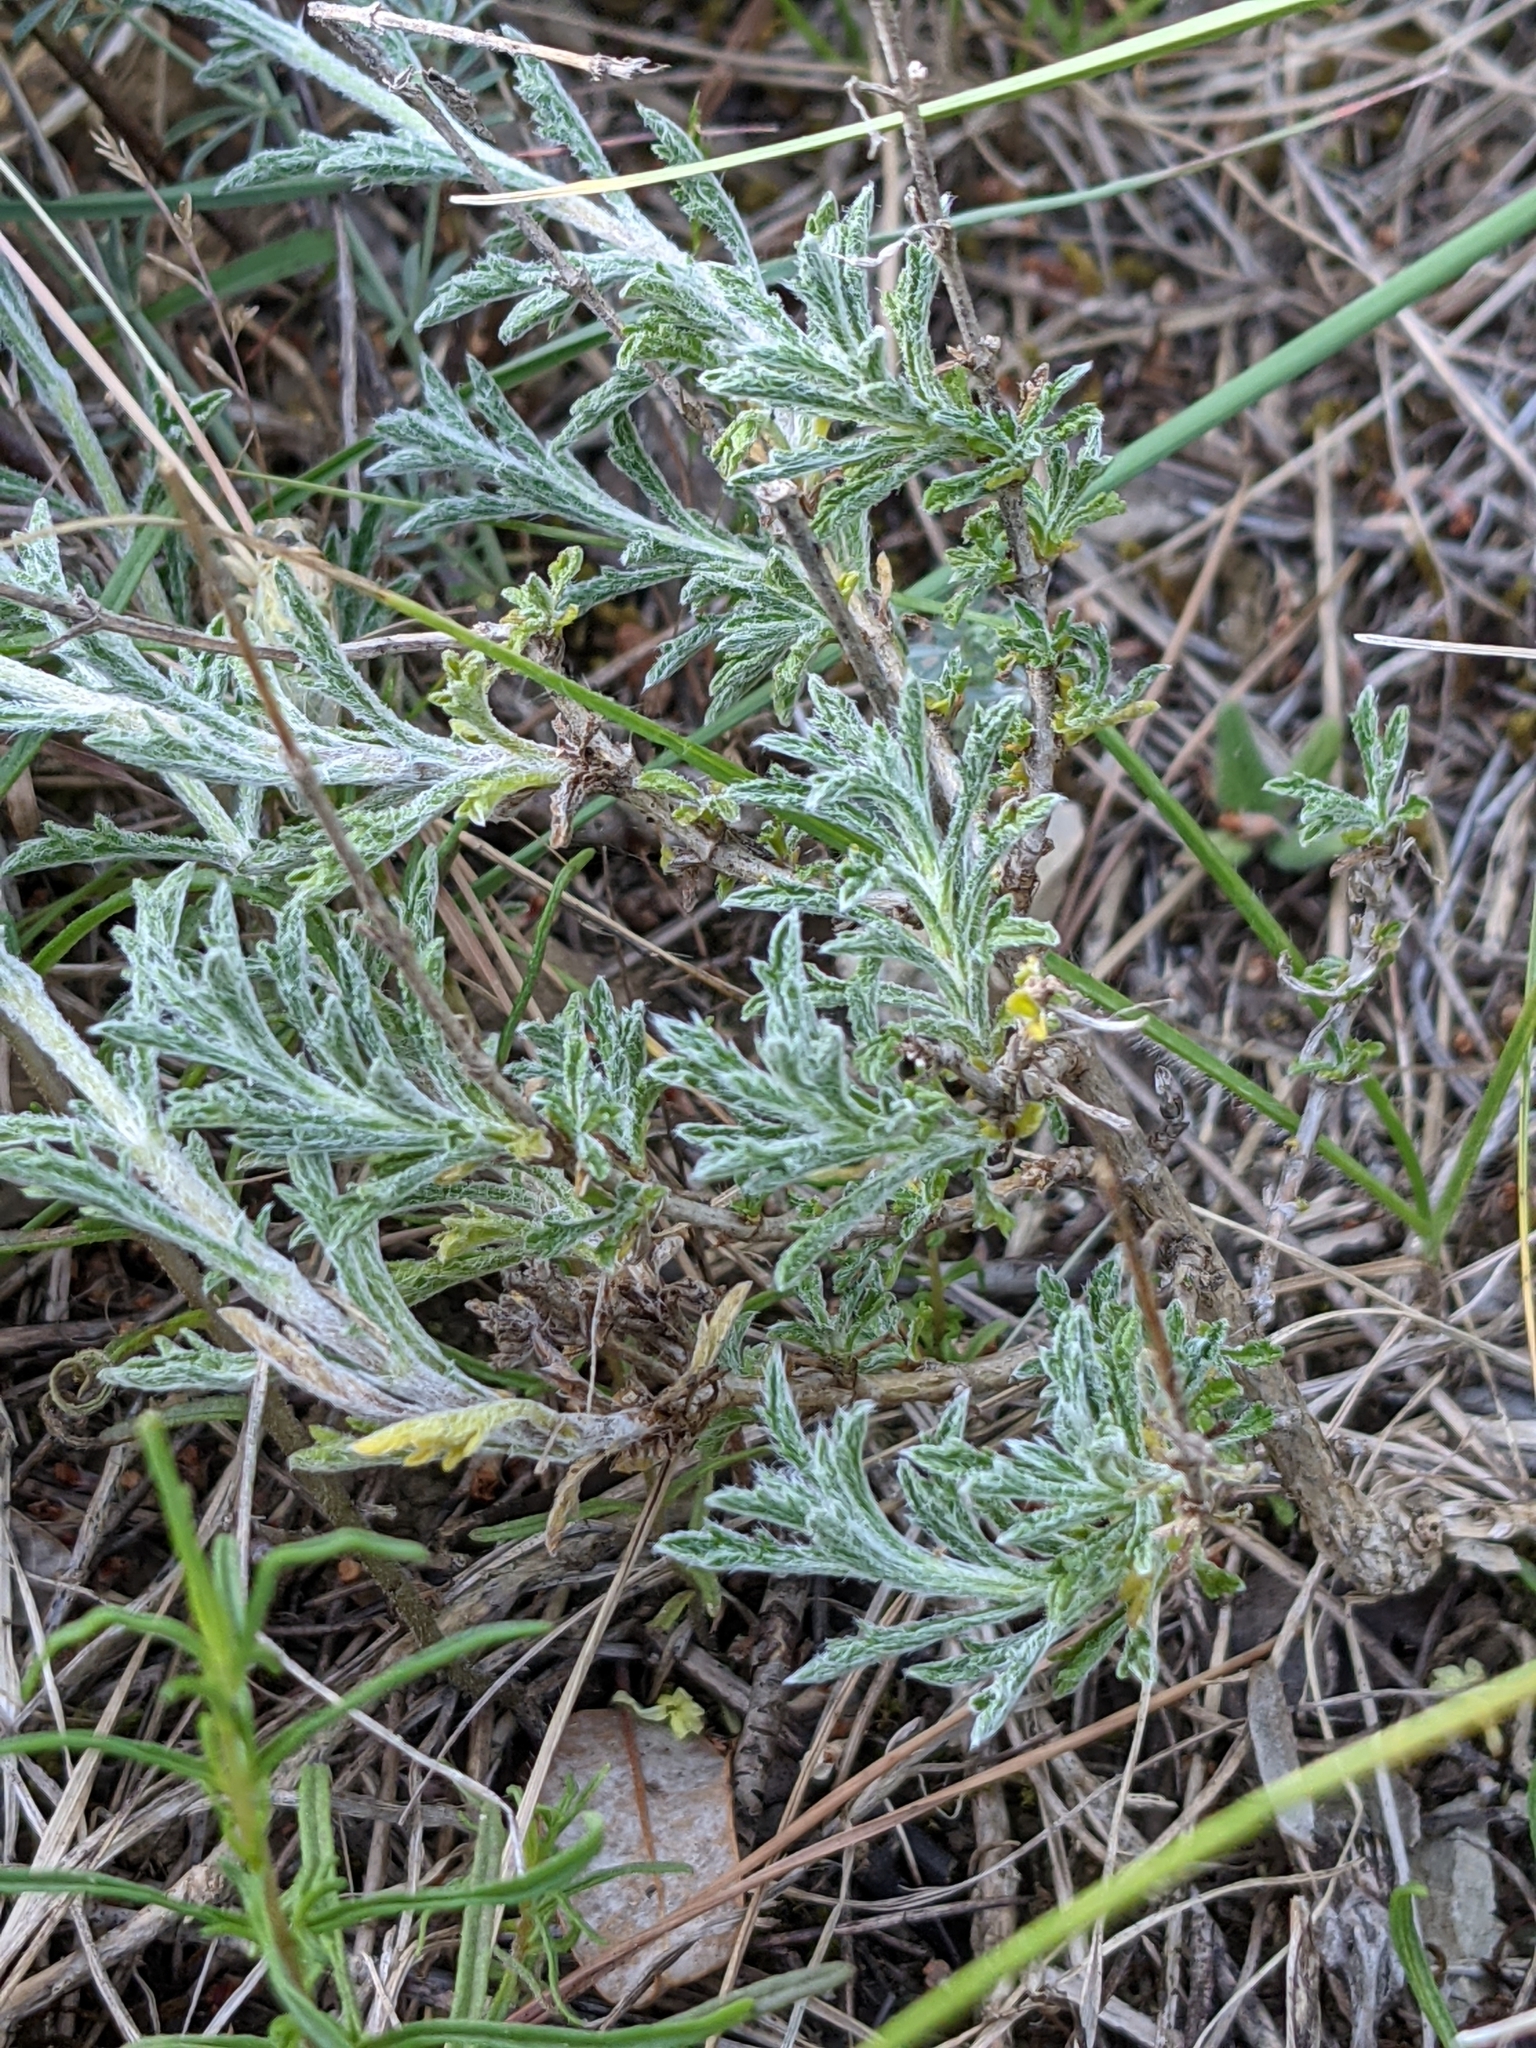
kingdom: Plantae
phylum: Tracheophyta
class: Magnoliopsida
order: Lamiales
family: Lamiaceae
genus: Sideritis
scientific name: Sideritis fruticulosa
